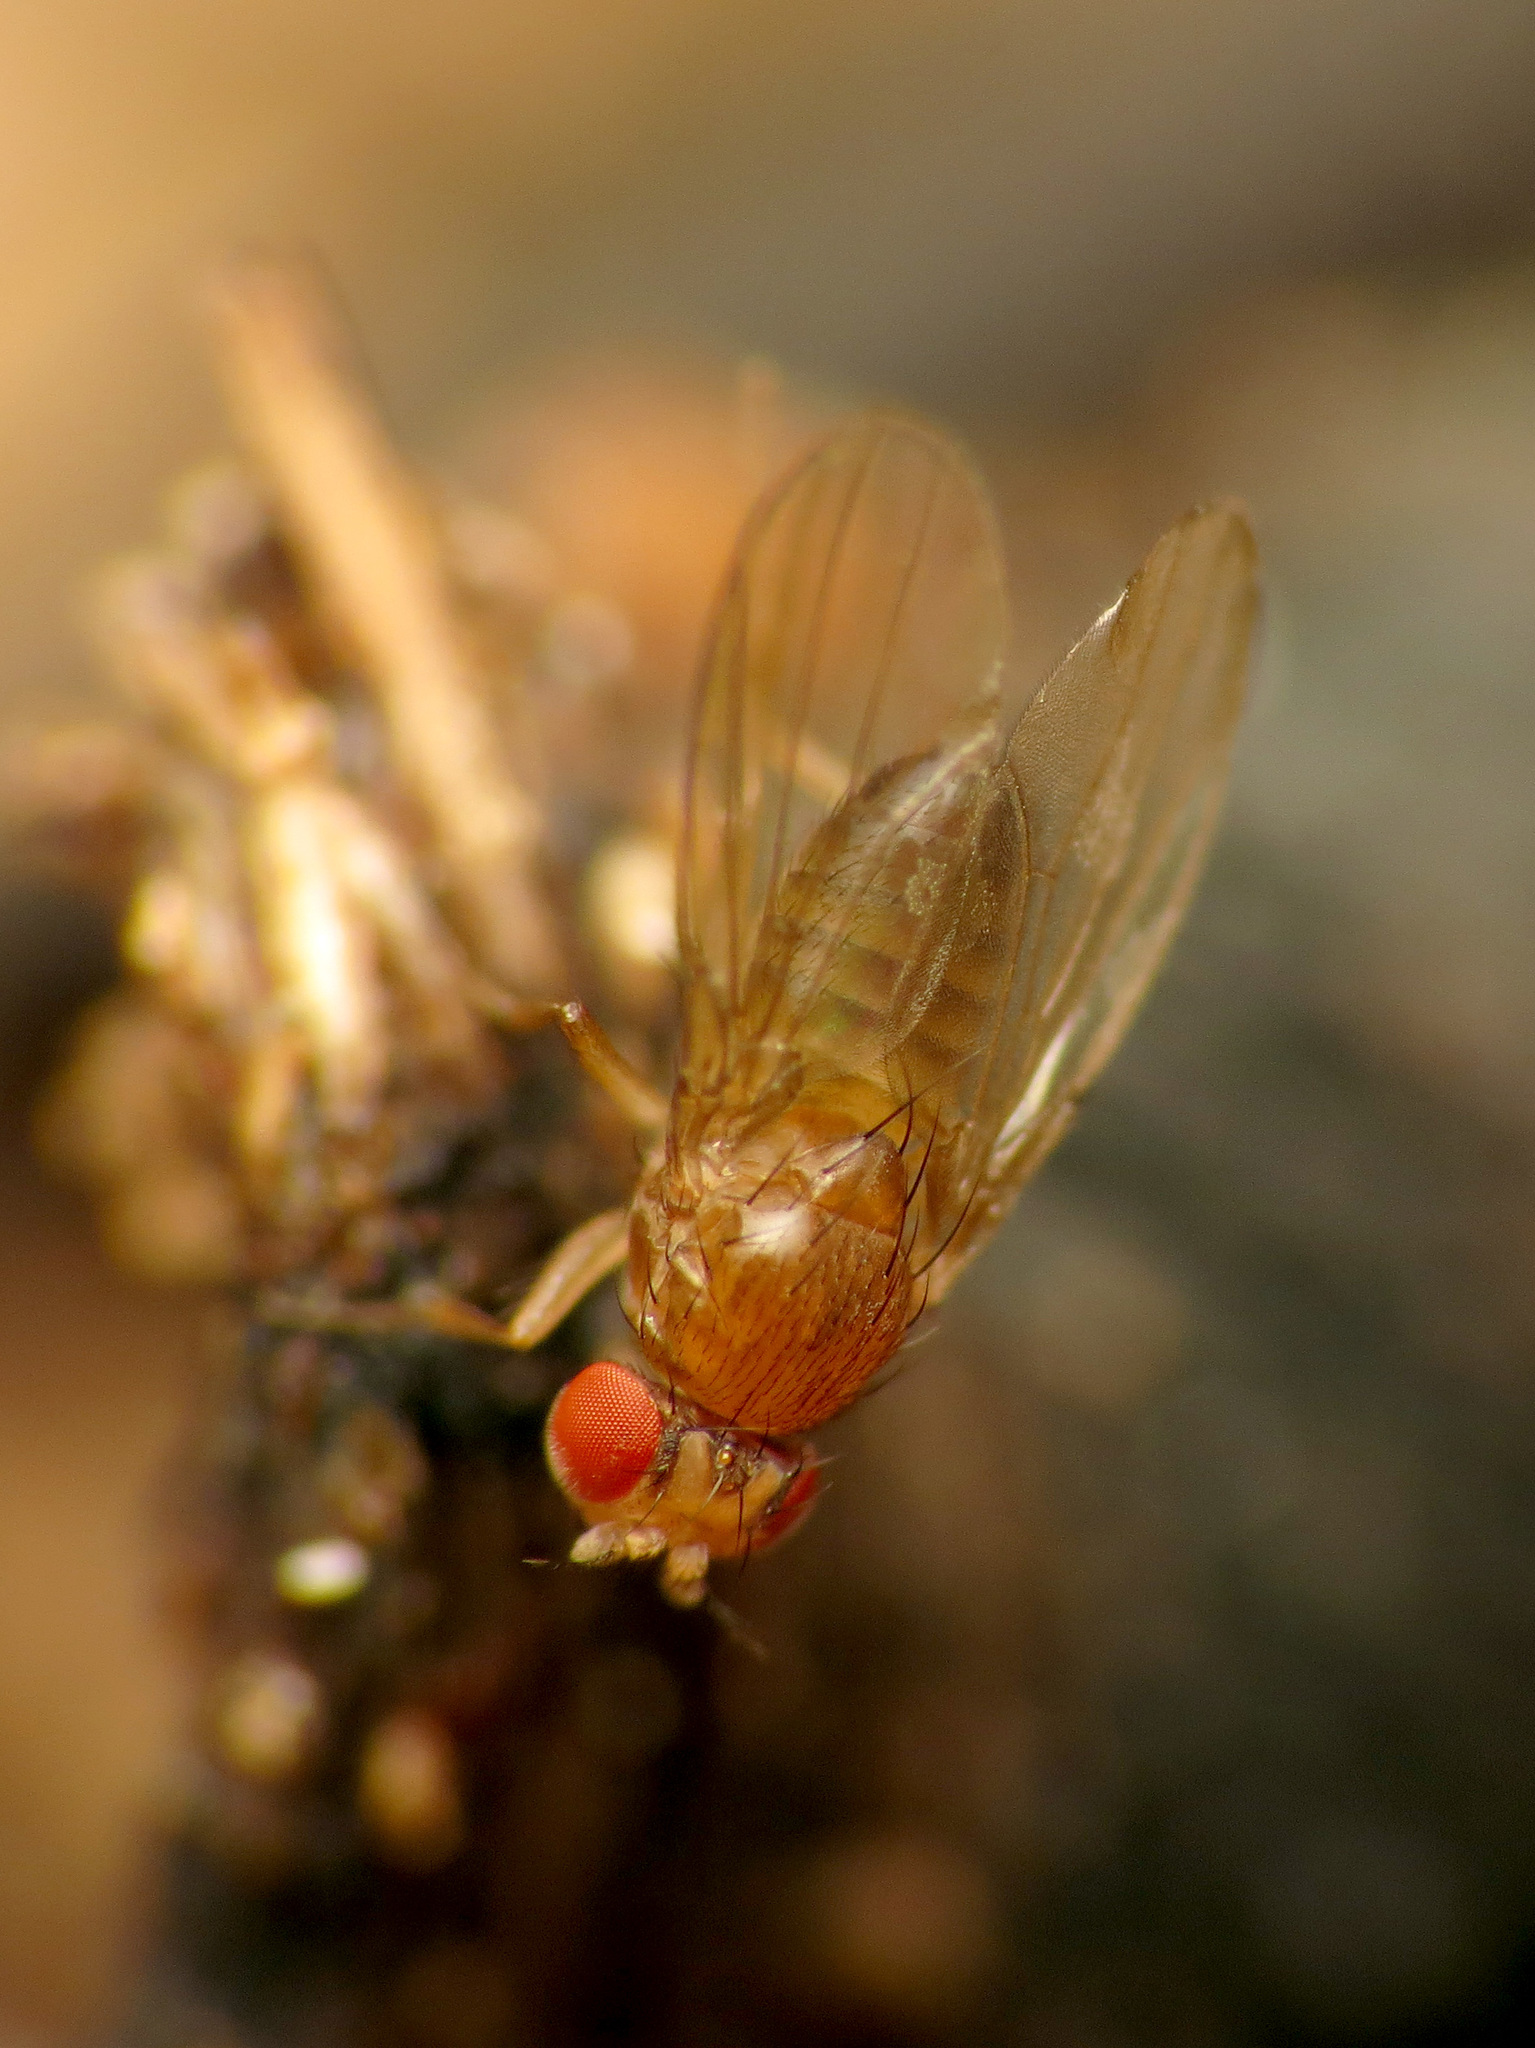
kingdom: Animalia
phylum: Arthropoda
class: Insecta
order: Diptera
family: Drosophilidae
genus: Drosophila
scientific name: Drosophila
